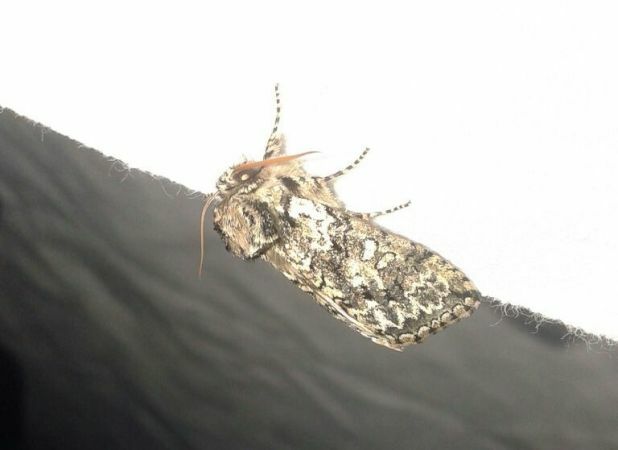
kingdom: Animalia
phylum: Arthropoda
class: Insecta
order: Lepidoptera
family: Drepanidae
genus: Polyploca
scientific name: Polyploca ridens
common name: Frosted green
